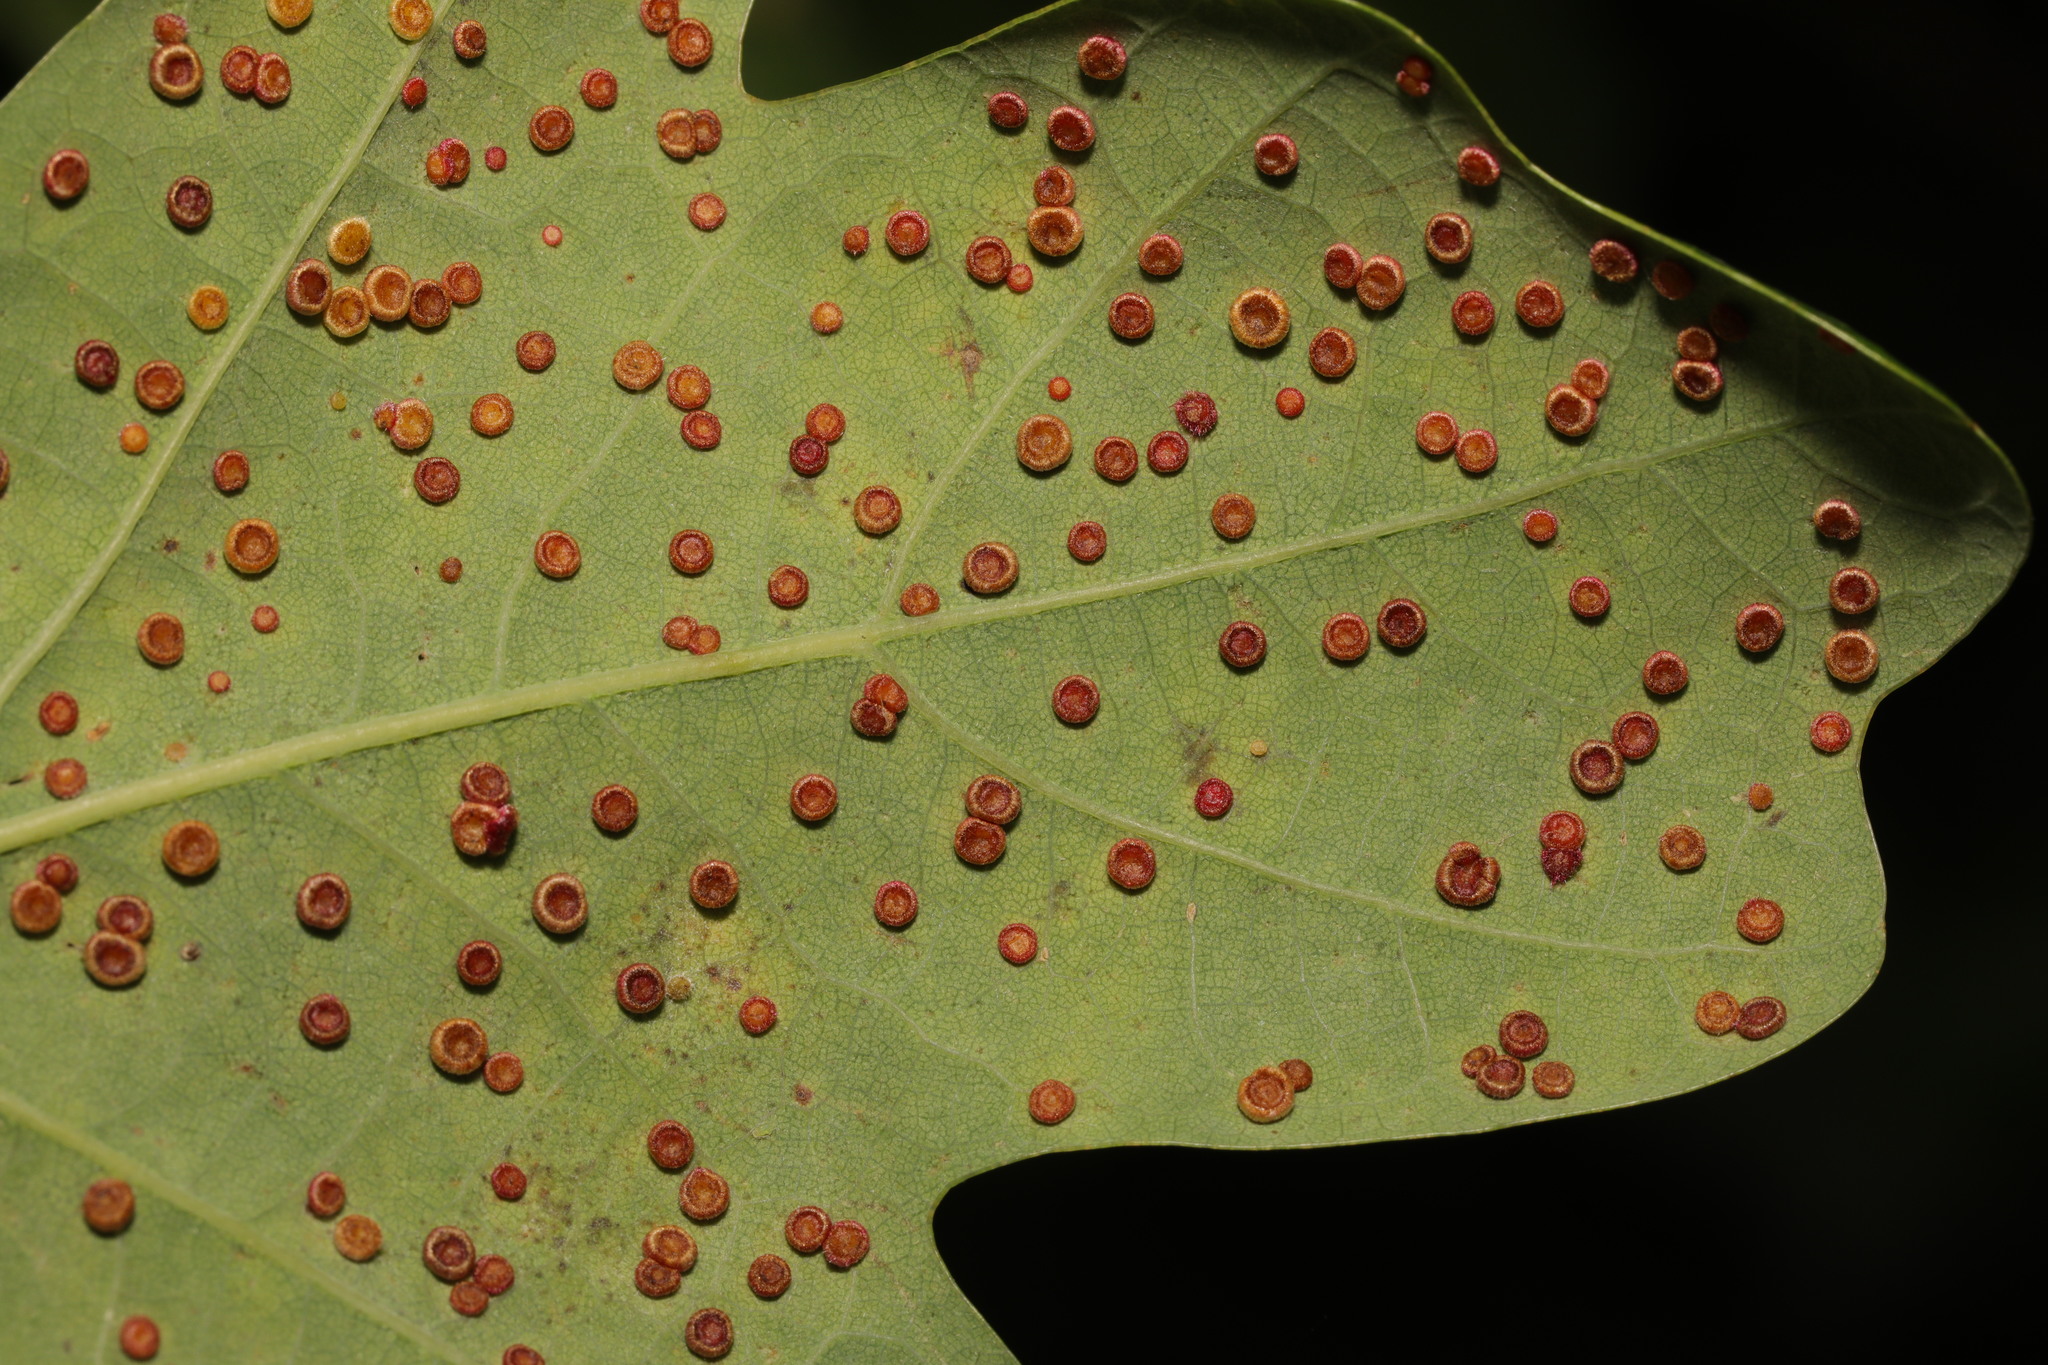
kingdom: Animalia
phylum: Arthropoda
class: Insecta
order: Hymenoptera
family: Cynipidae
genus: Neuroterus
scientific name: Neuroterus numismalis
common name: Silk-button spangle gall
